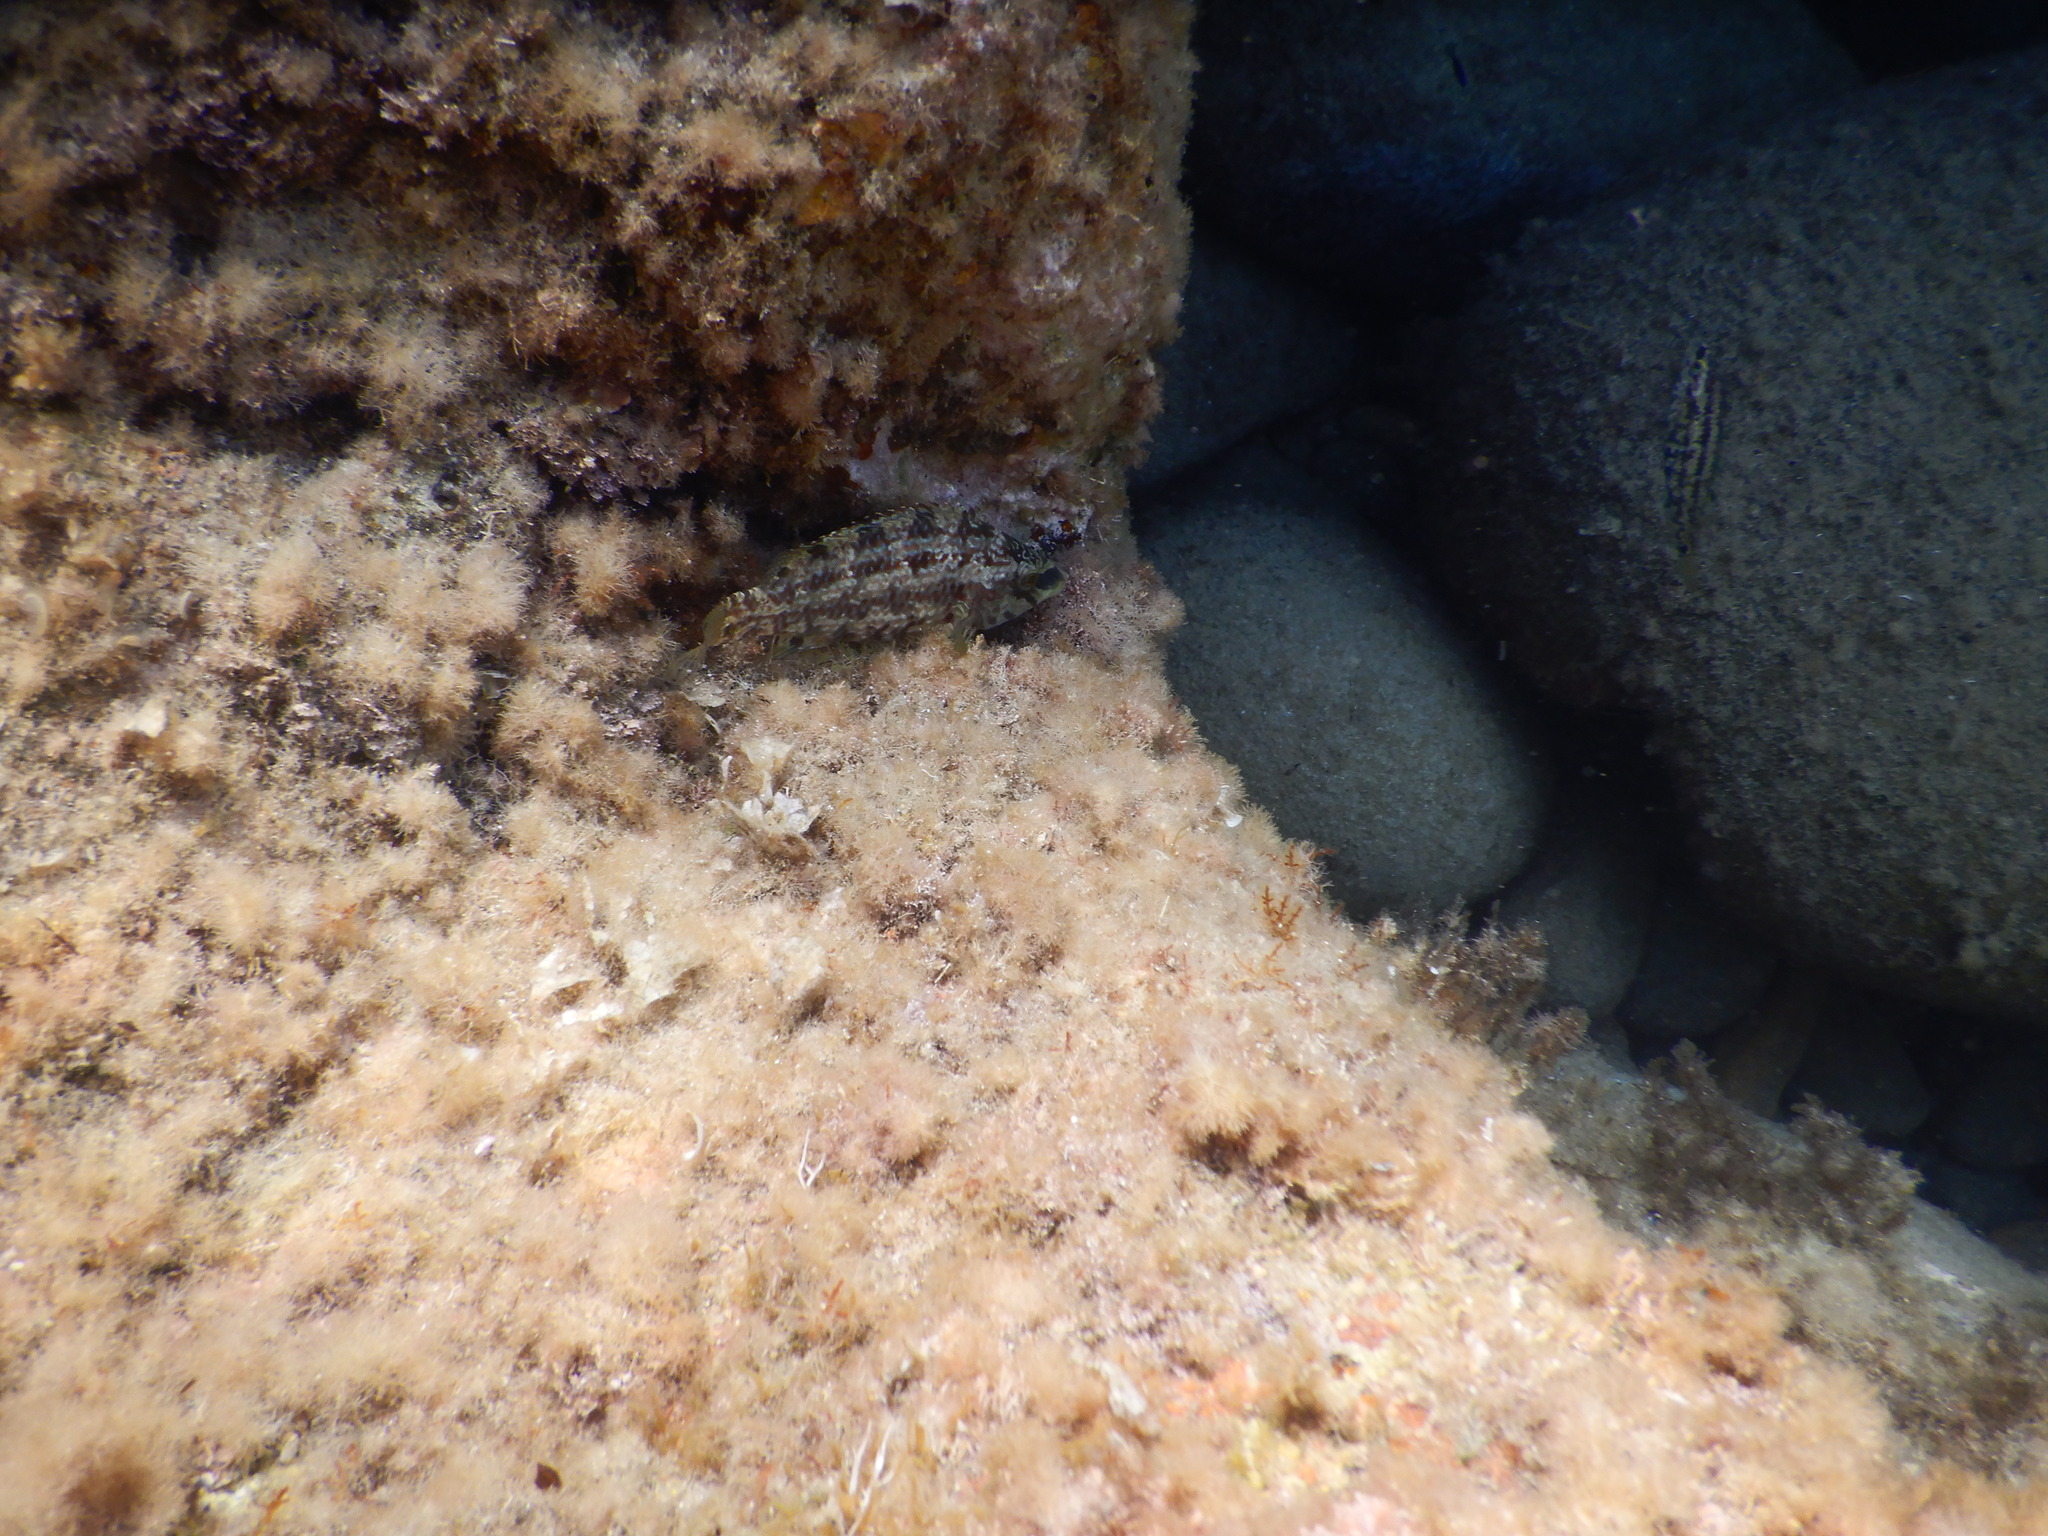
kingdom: Animalia
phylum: Chordata
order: Perciformes
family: Labridae
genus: Symphodus
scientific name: Symphodus roissali
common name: Five-spotted wrasse
